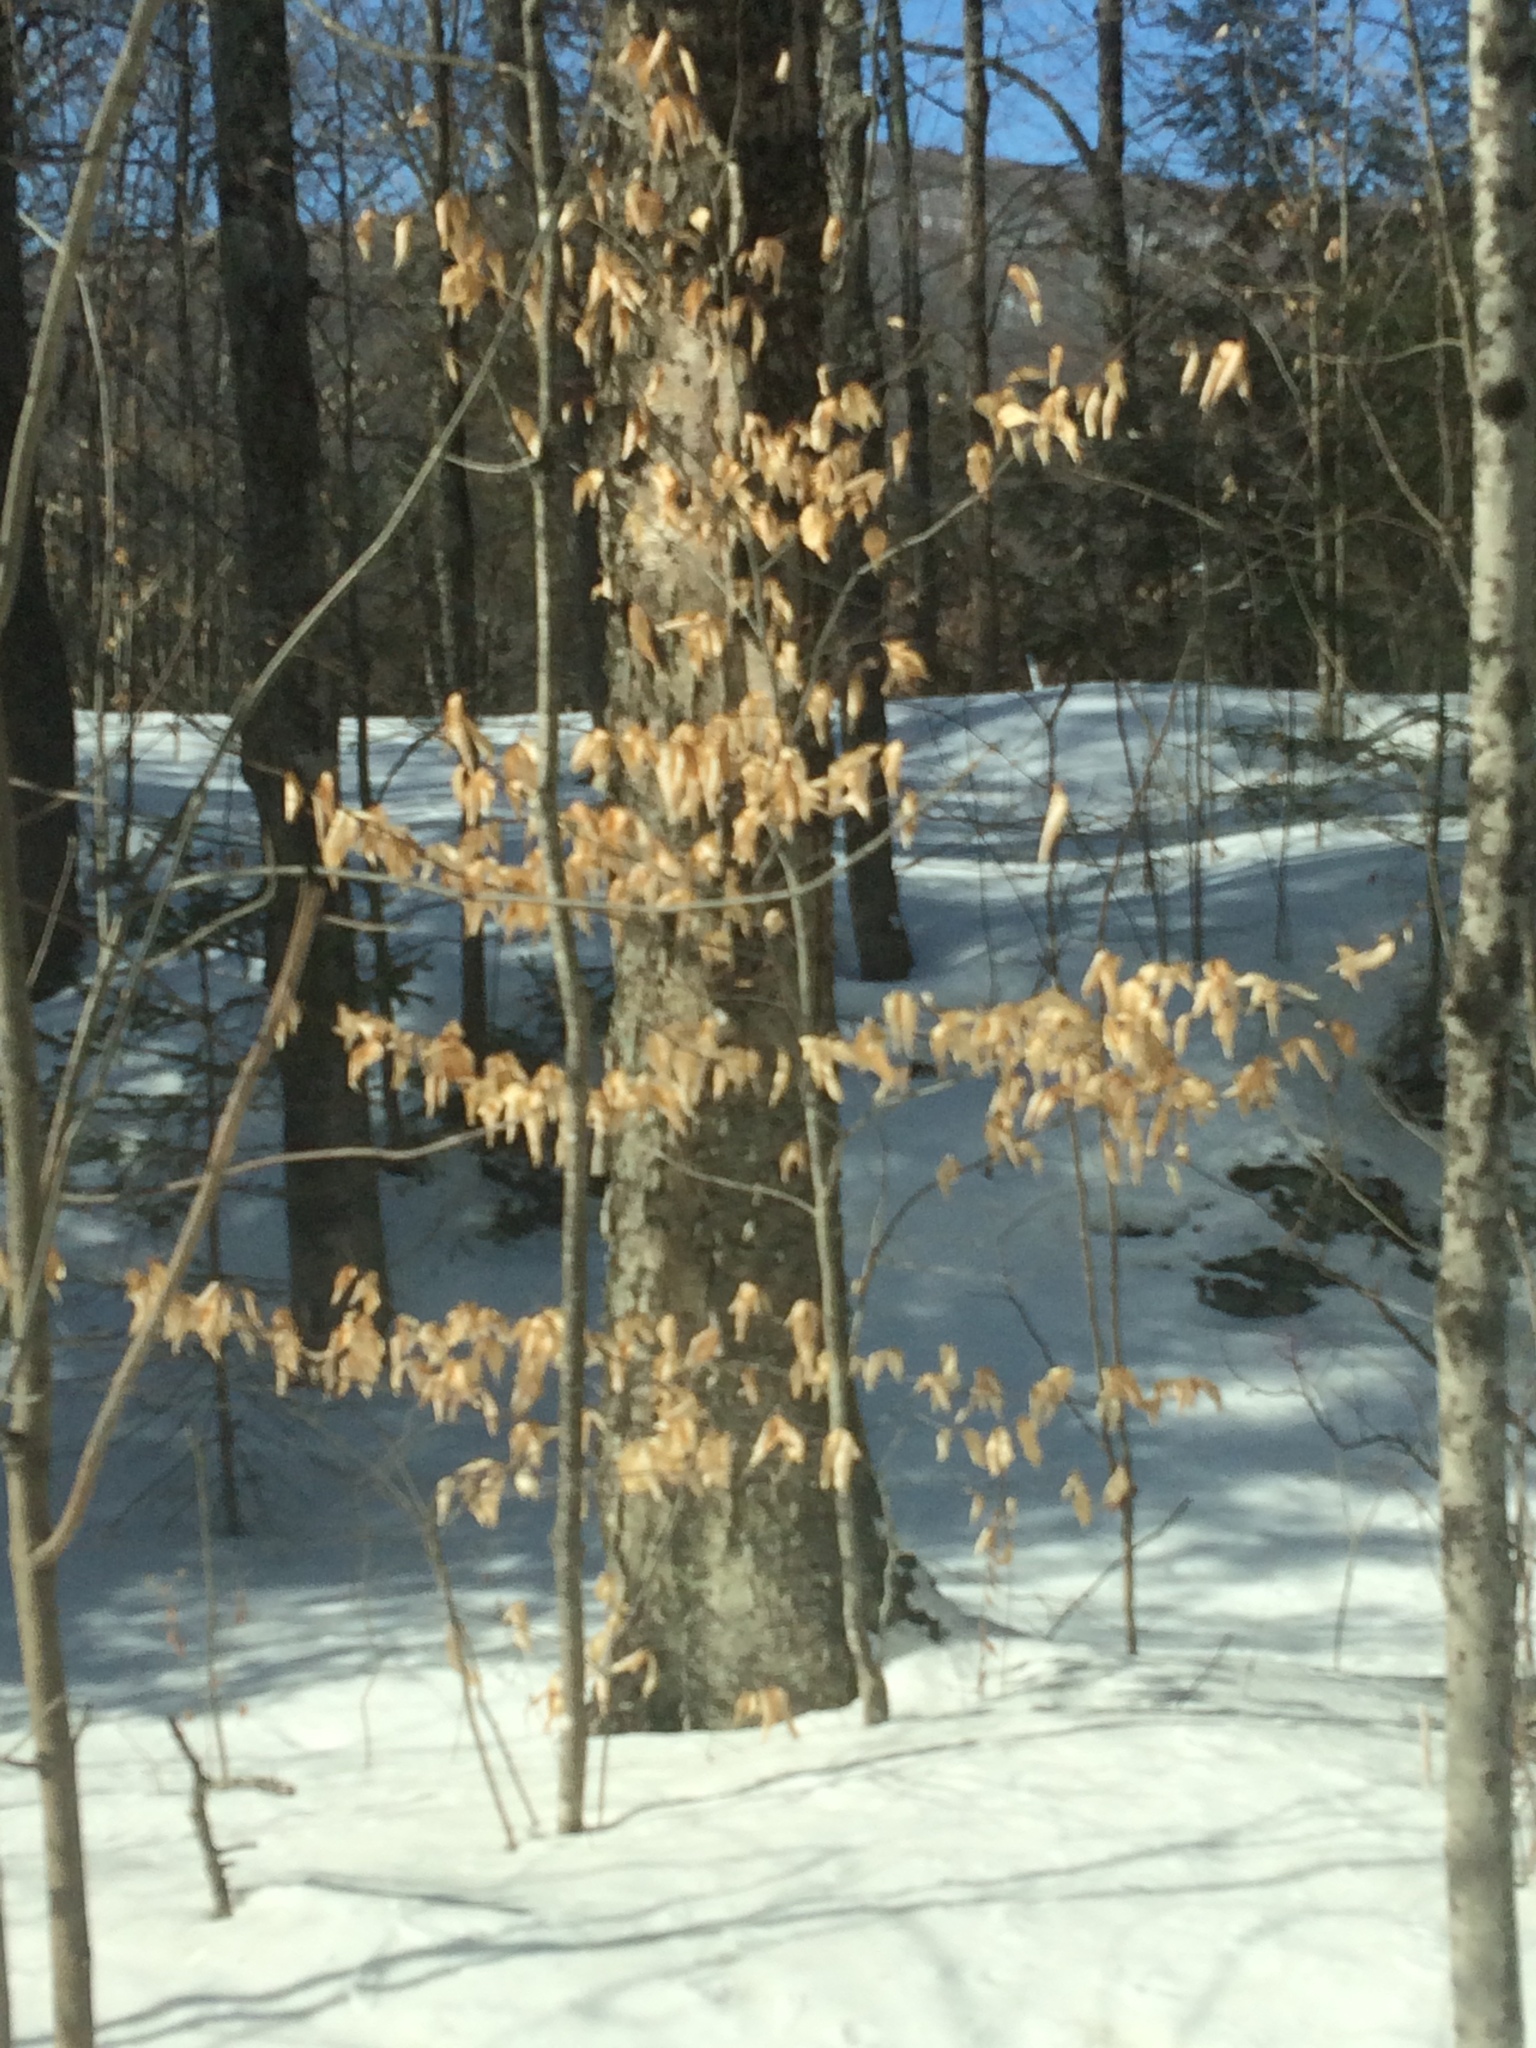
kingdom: Plantae
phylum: Tracheophyta
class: Magnoliopsida
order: Fagales
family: Fagaceae
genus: Fagus
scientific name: Fagus grandifolia
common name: American beech
